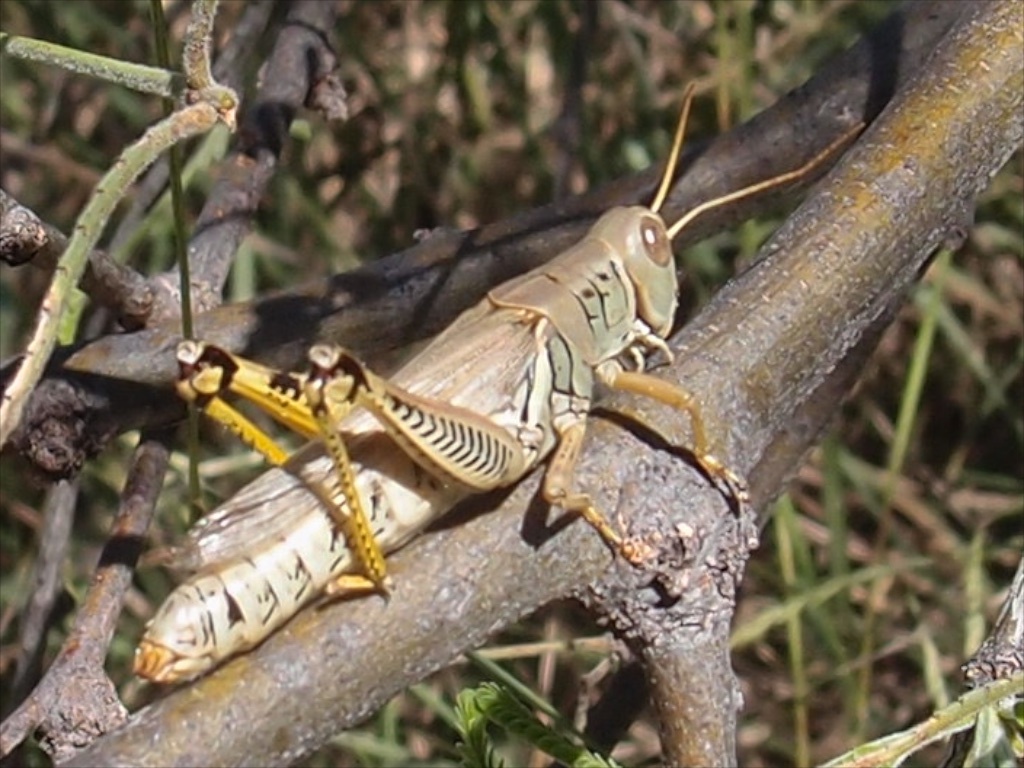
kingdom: Animalia
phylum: Arthropoda
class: Insecta
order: Orthoptera
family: Acrididae
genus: Melanoplus
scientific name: Melanoplus differentialis
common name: Differential grasshopper
